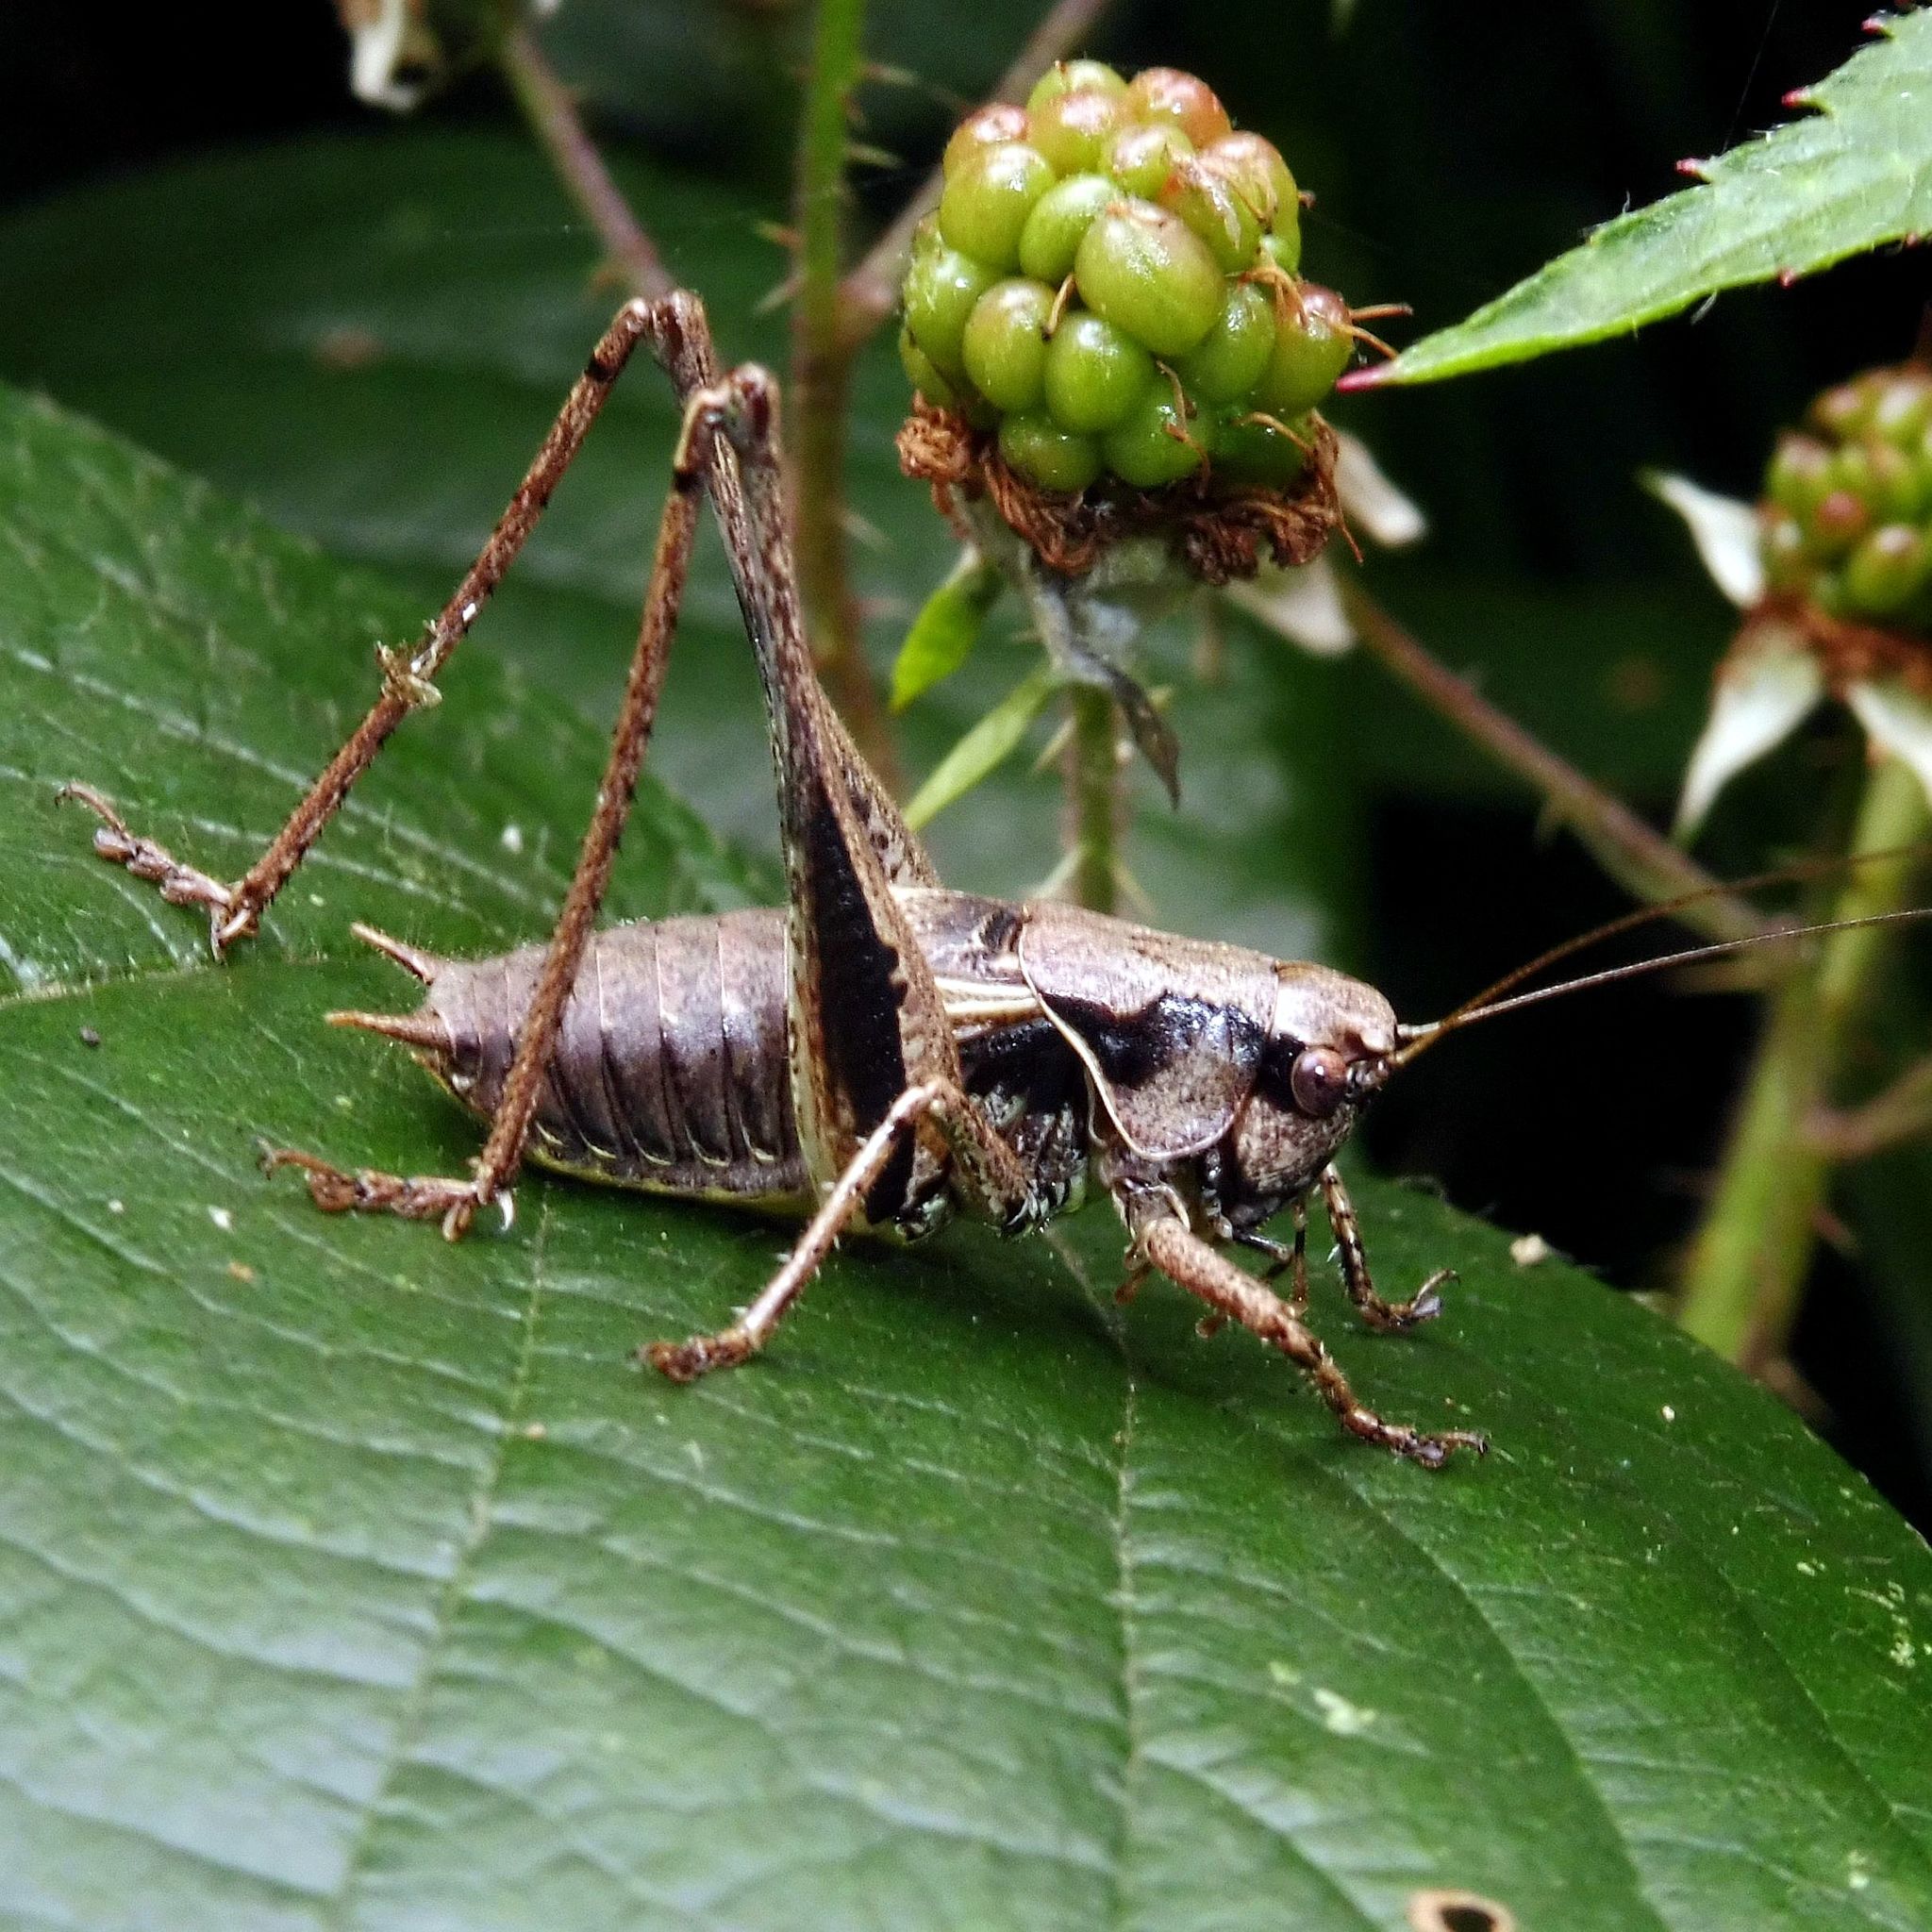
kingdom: Animalia
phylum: Arthropoda
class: Insecta
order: Orthoptera
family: Tettigoniidae
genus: Pholidoptera
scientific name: Pholidoptera griseoaptera
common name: Dark bush-cricket
